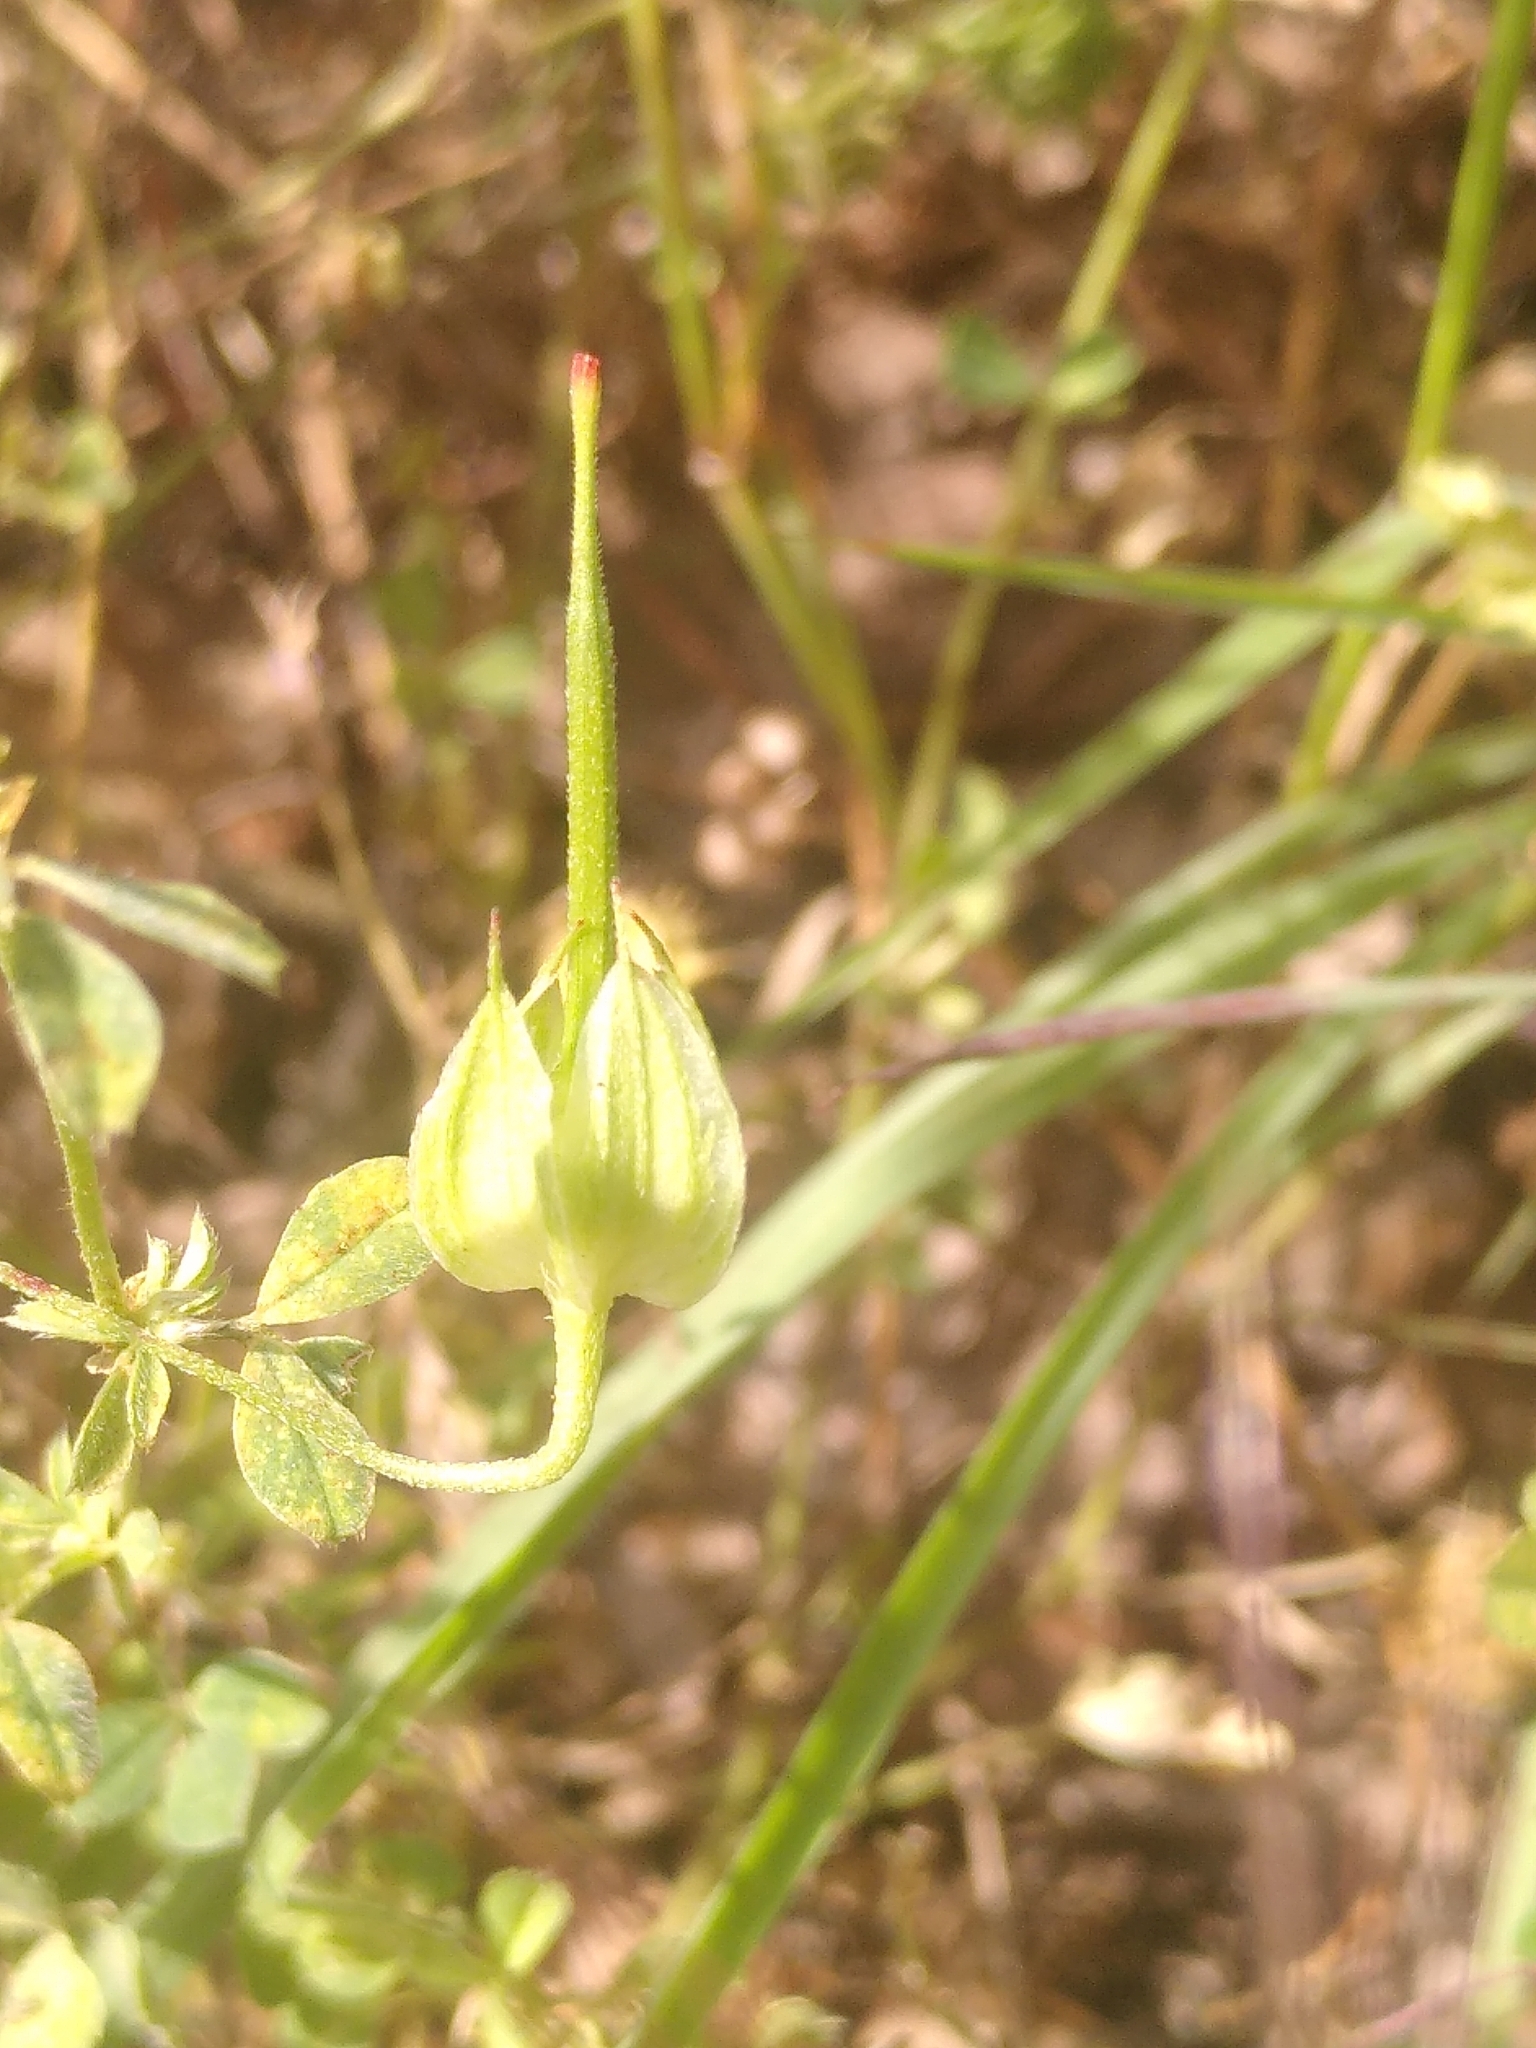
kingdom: Plantae
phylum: Tracheophyta
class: Magnoliopsida
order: Geraniales
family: Geraniaceae
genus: Geranium
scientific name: Geranium columbinum
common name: Long-stalked crane's-bill
